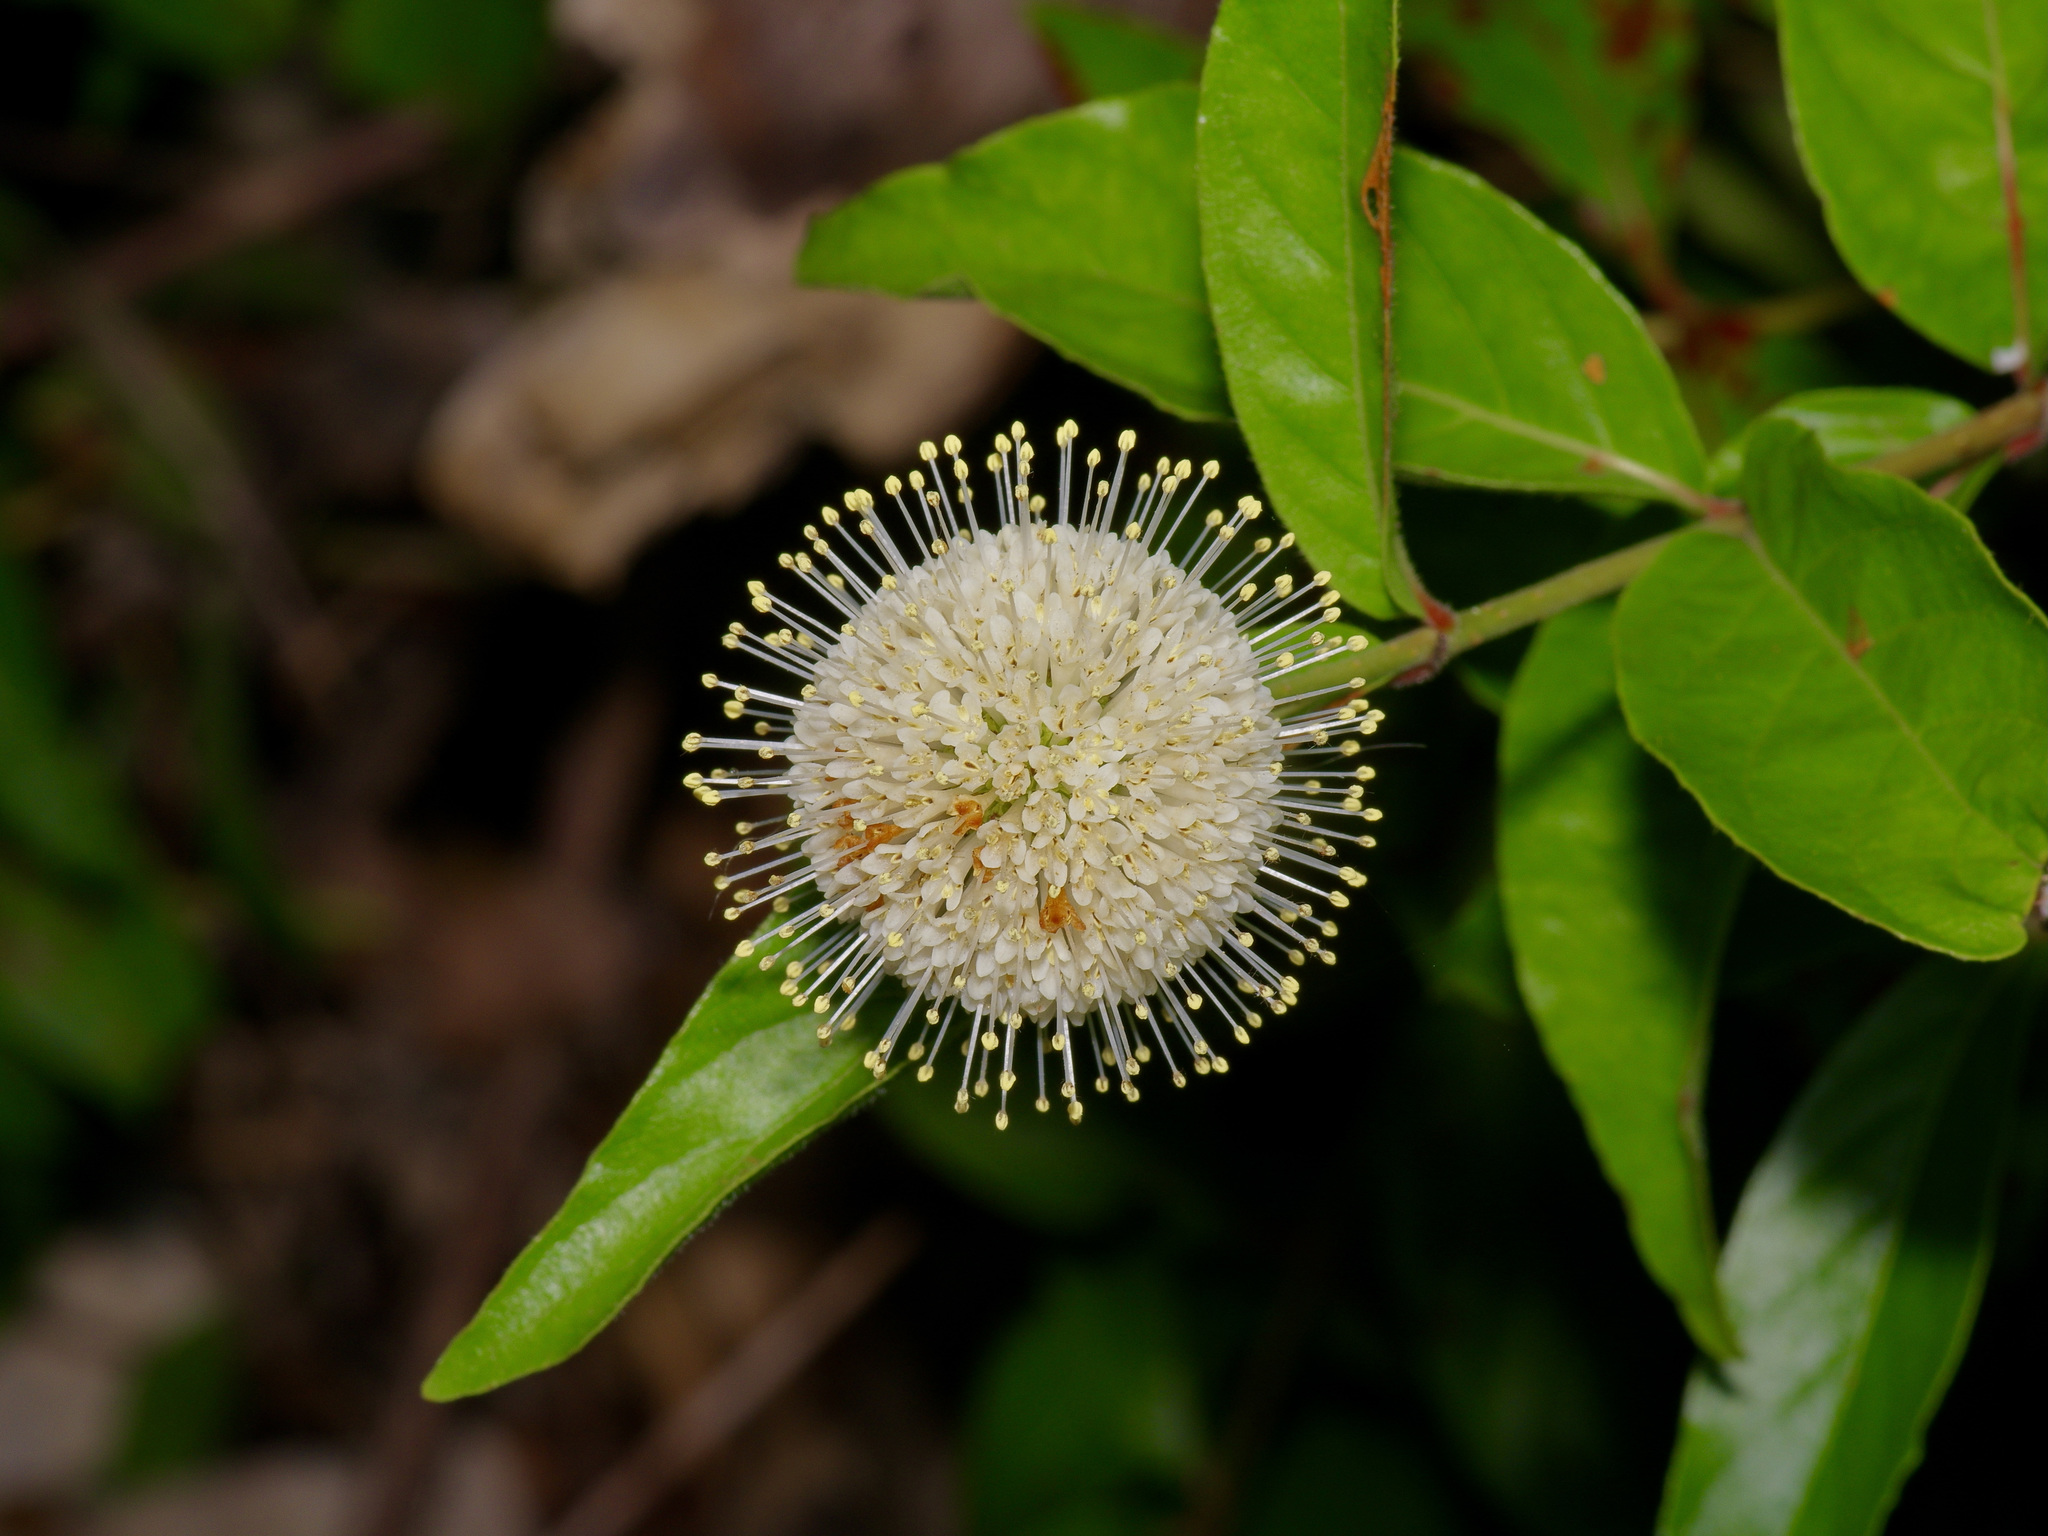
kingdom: Plantae
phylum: Tracheophyta
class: Magnoliopsida
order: Gentianales
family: Rubiaceae
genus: Cephalanthus
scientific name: Cephalanthus occidentalis
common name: Button-willow
